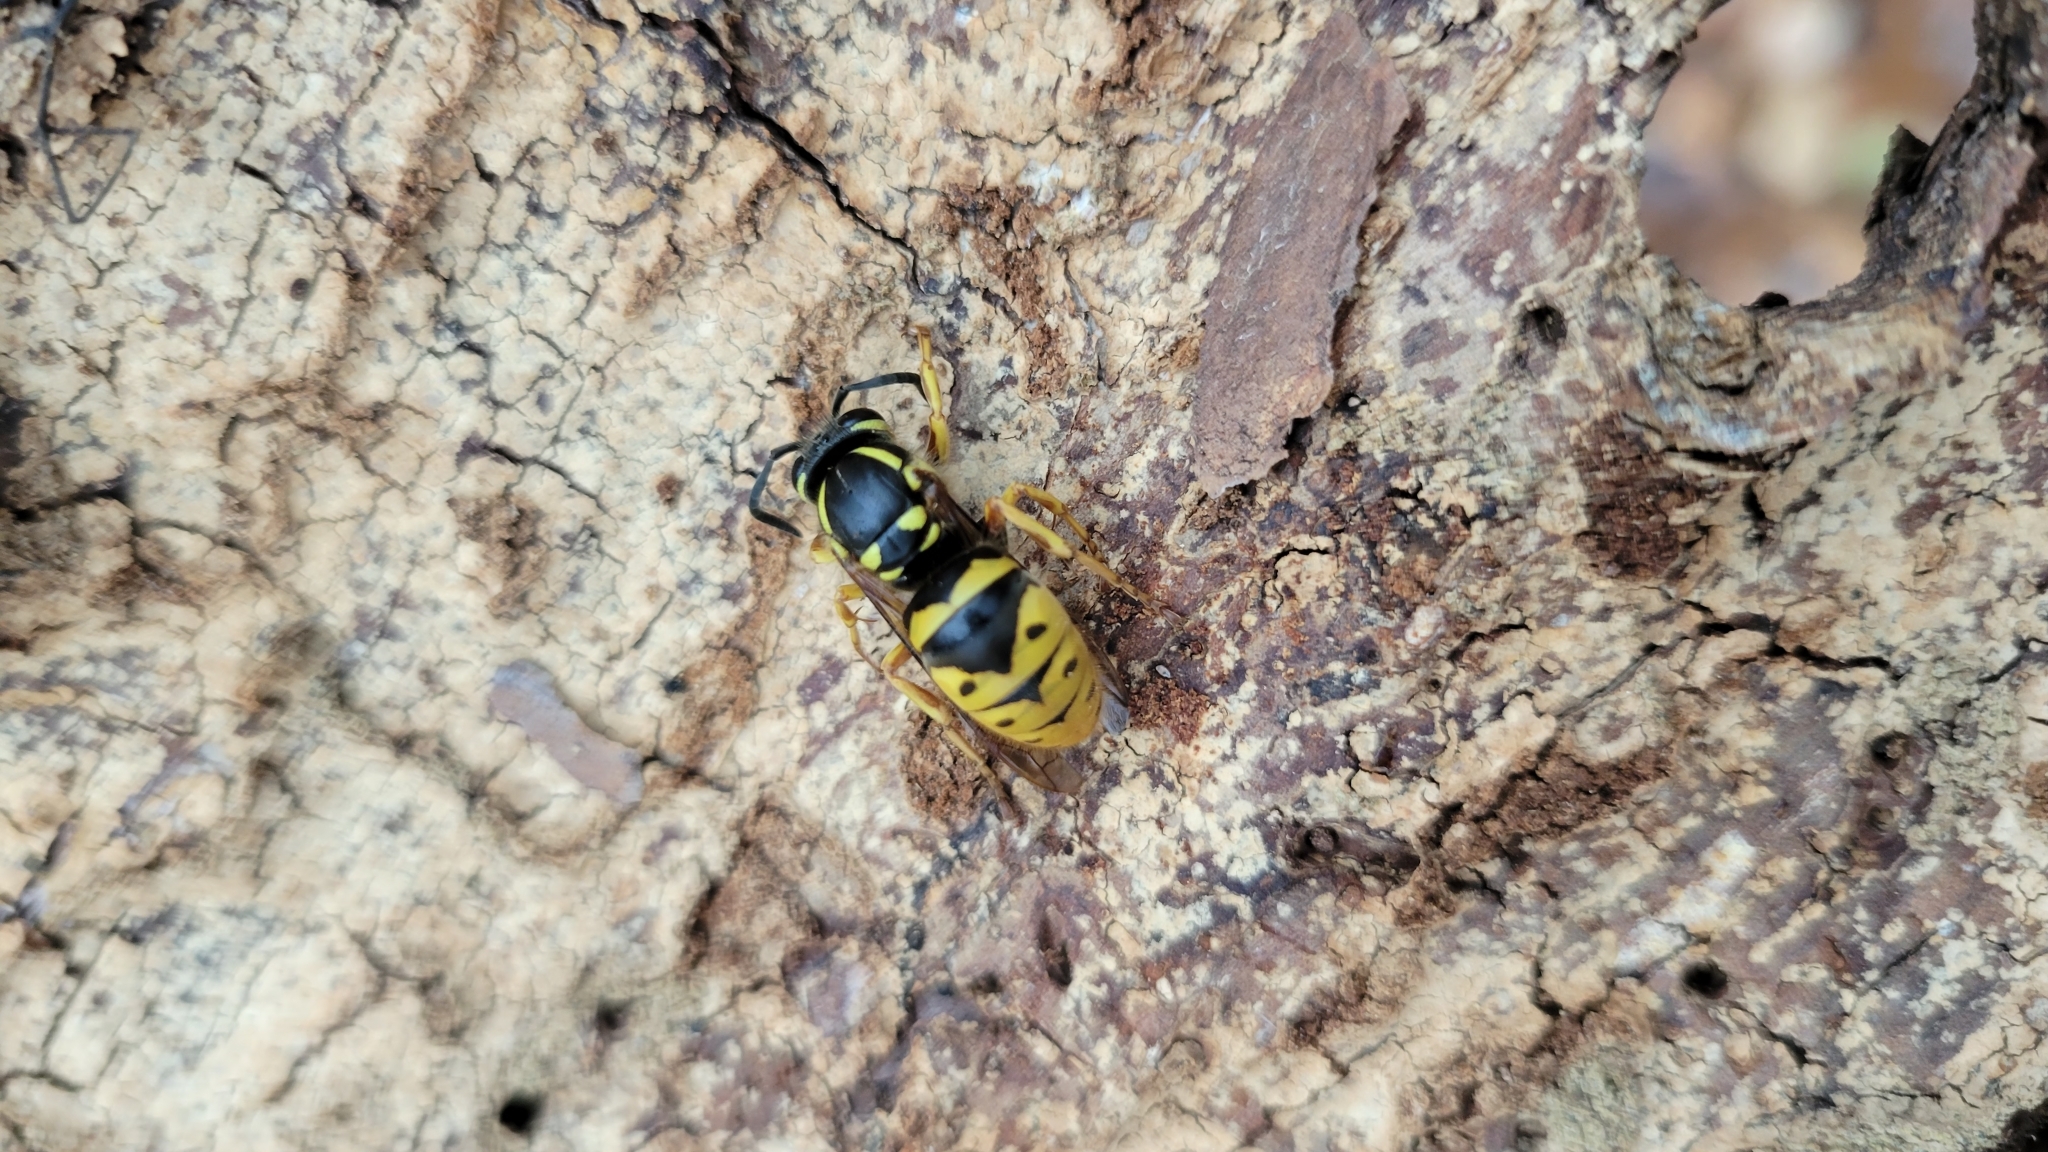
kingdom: Animalia
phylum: Arthropoda
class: Insecta
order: Hymenoptera
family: Vespidae
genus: Vespula
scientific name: Vespula flavopilosa
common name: Downy yellowjacket
